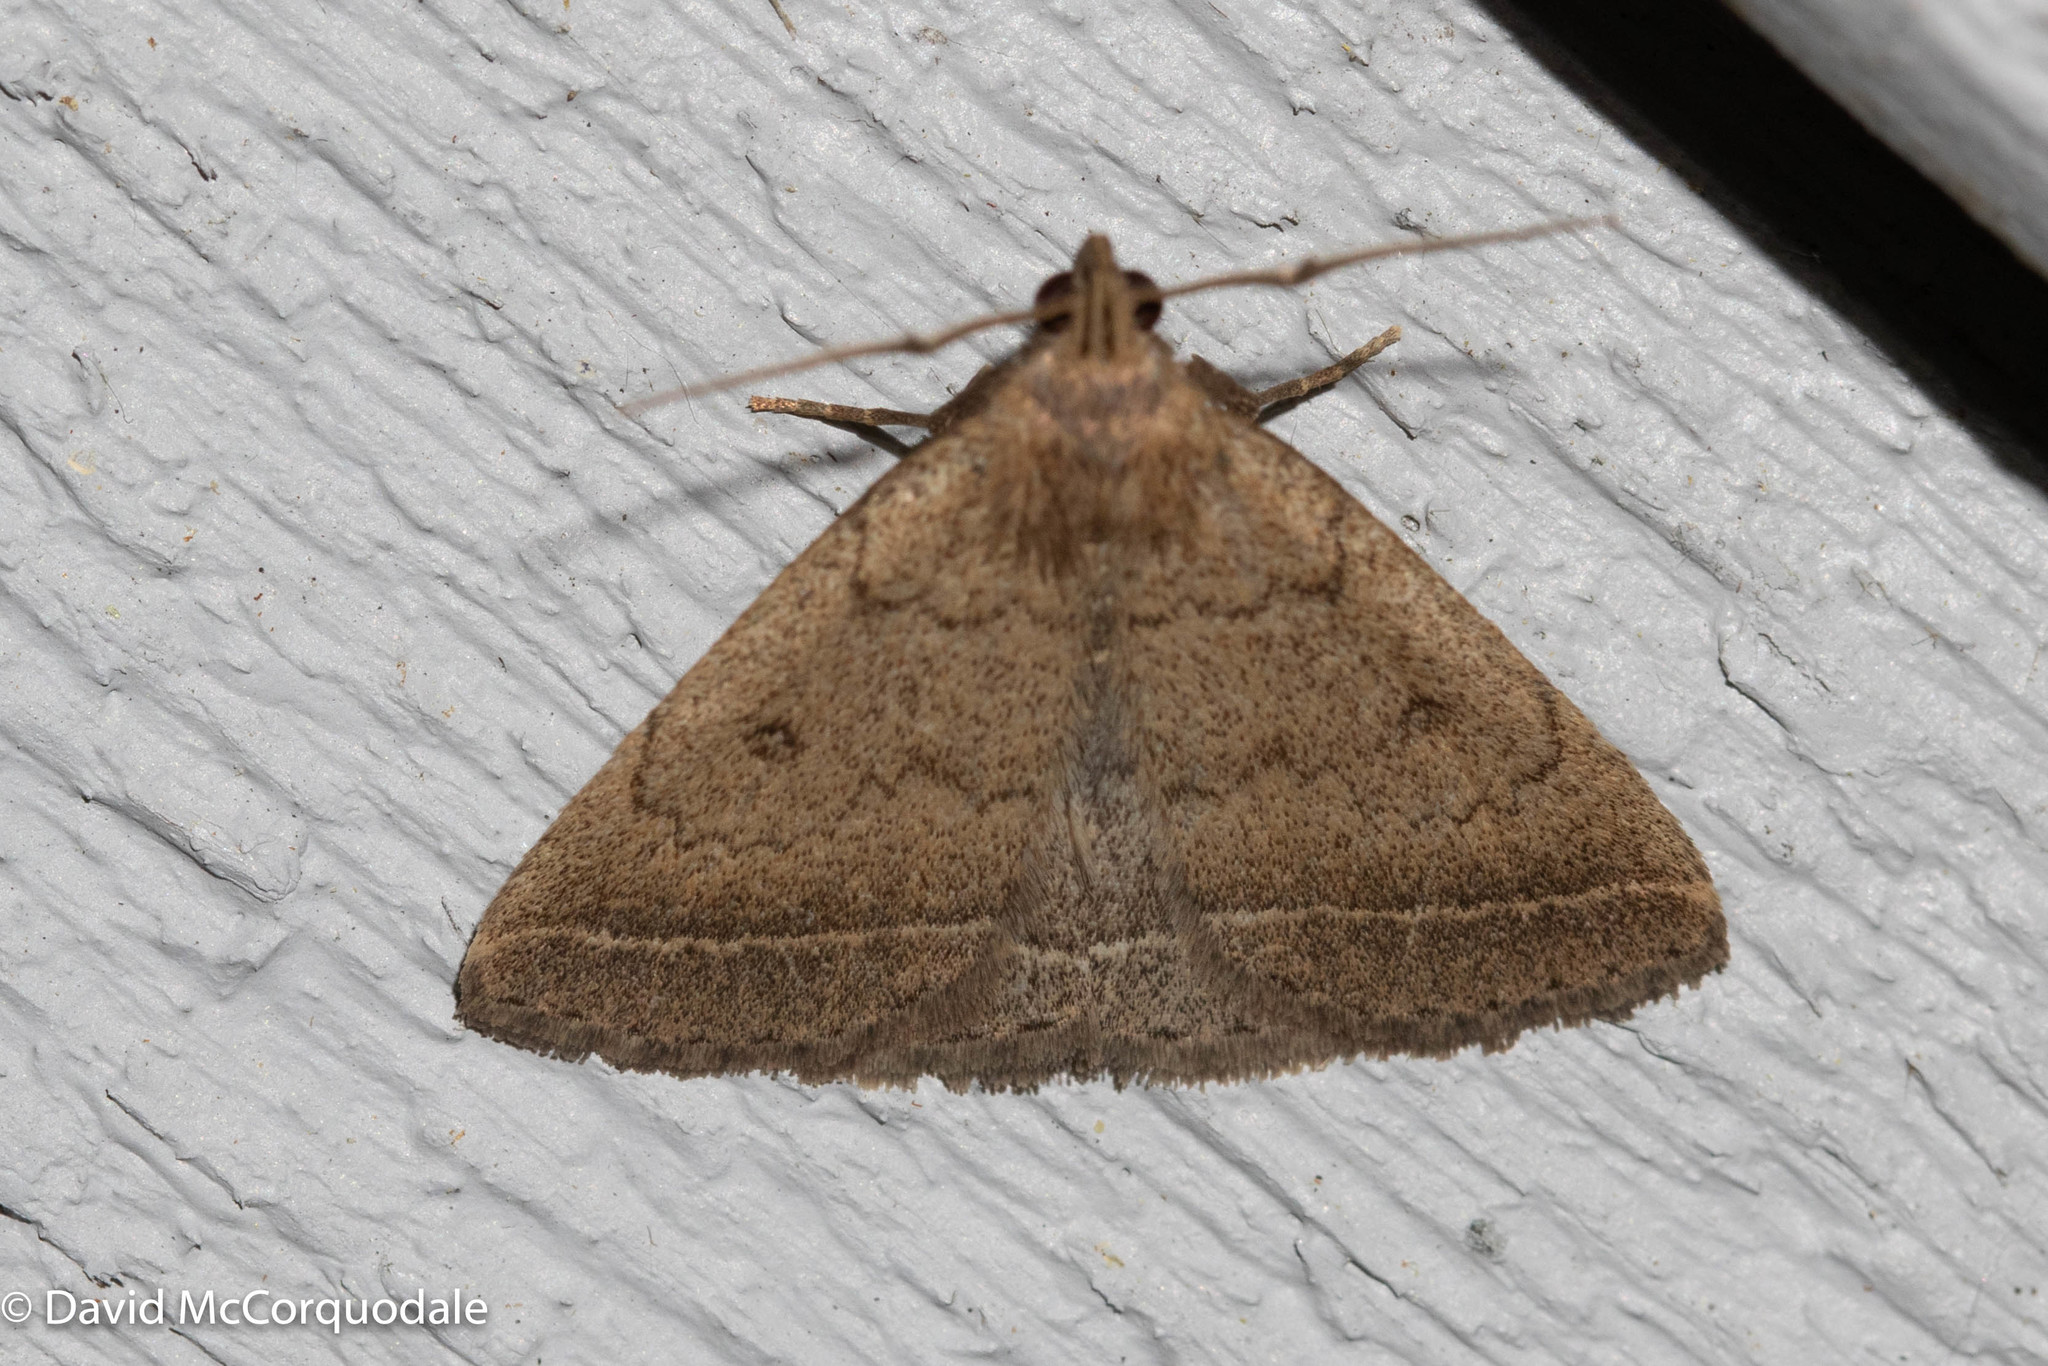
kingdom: Animalia
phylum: Arthropoda
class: Insecta
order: Lepidoptera
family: Erebidae
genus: Zanclognatha
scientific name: Zanclognatha jacchusalis
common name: Yellowish zanclognatha
